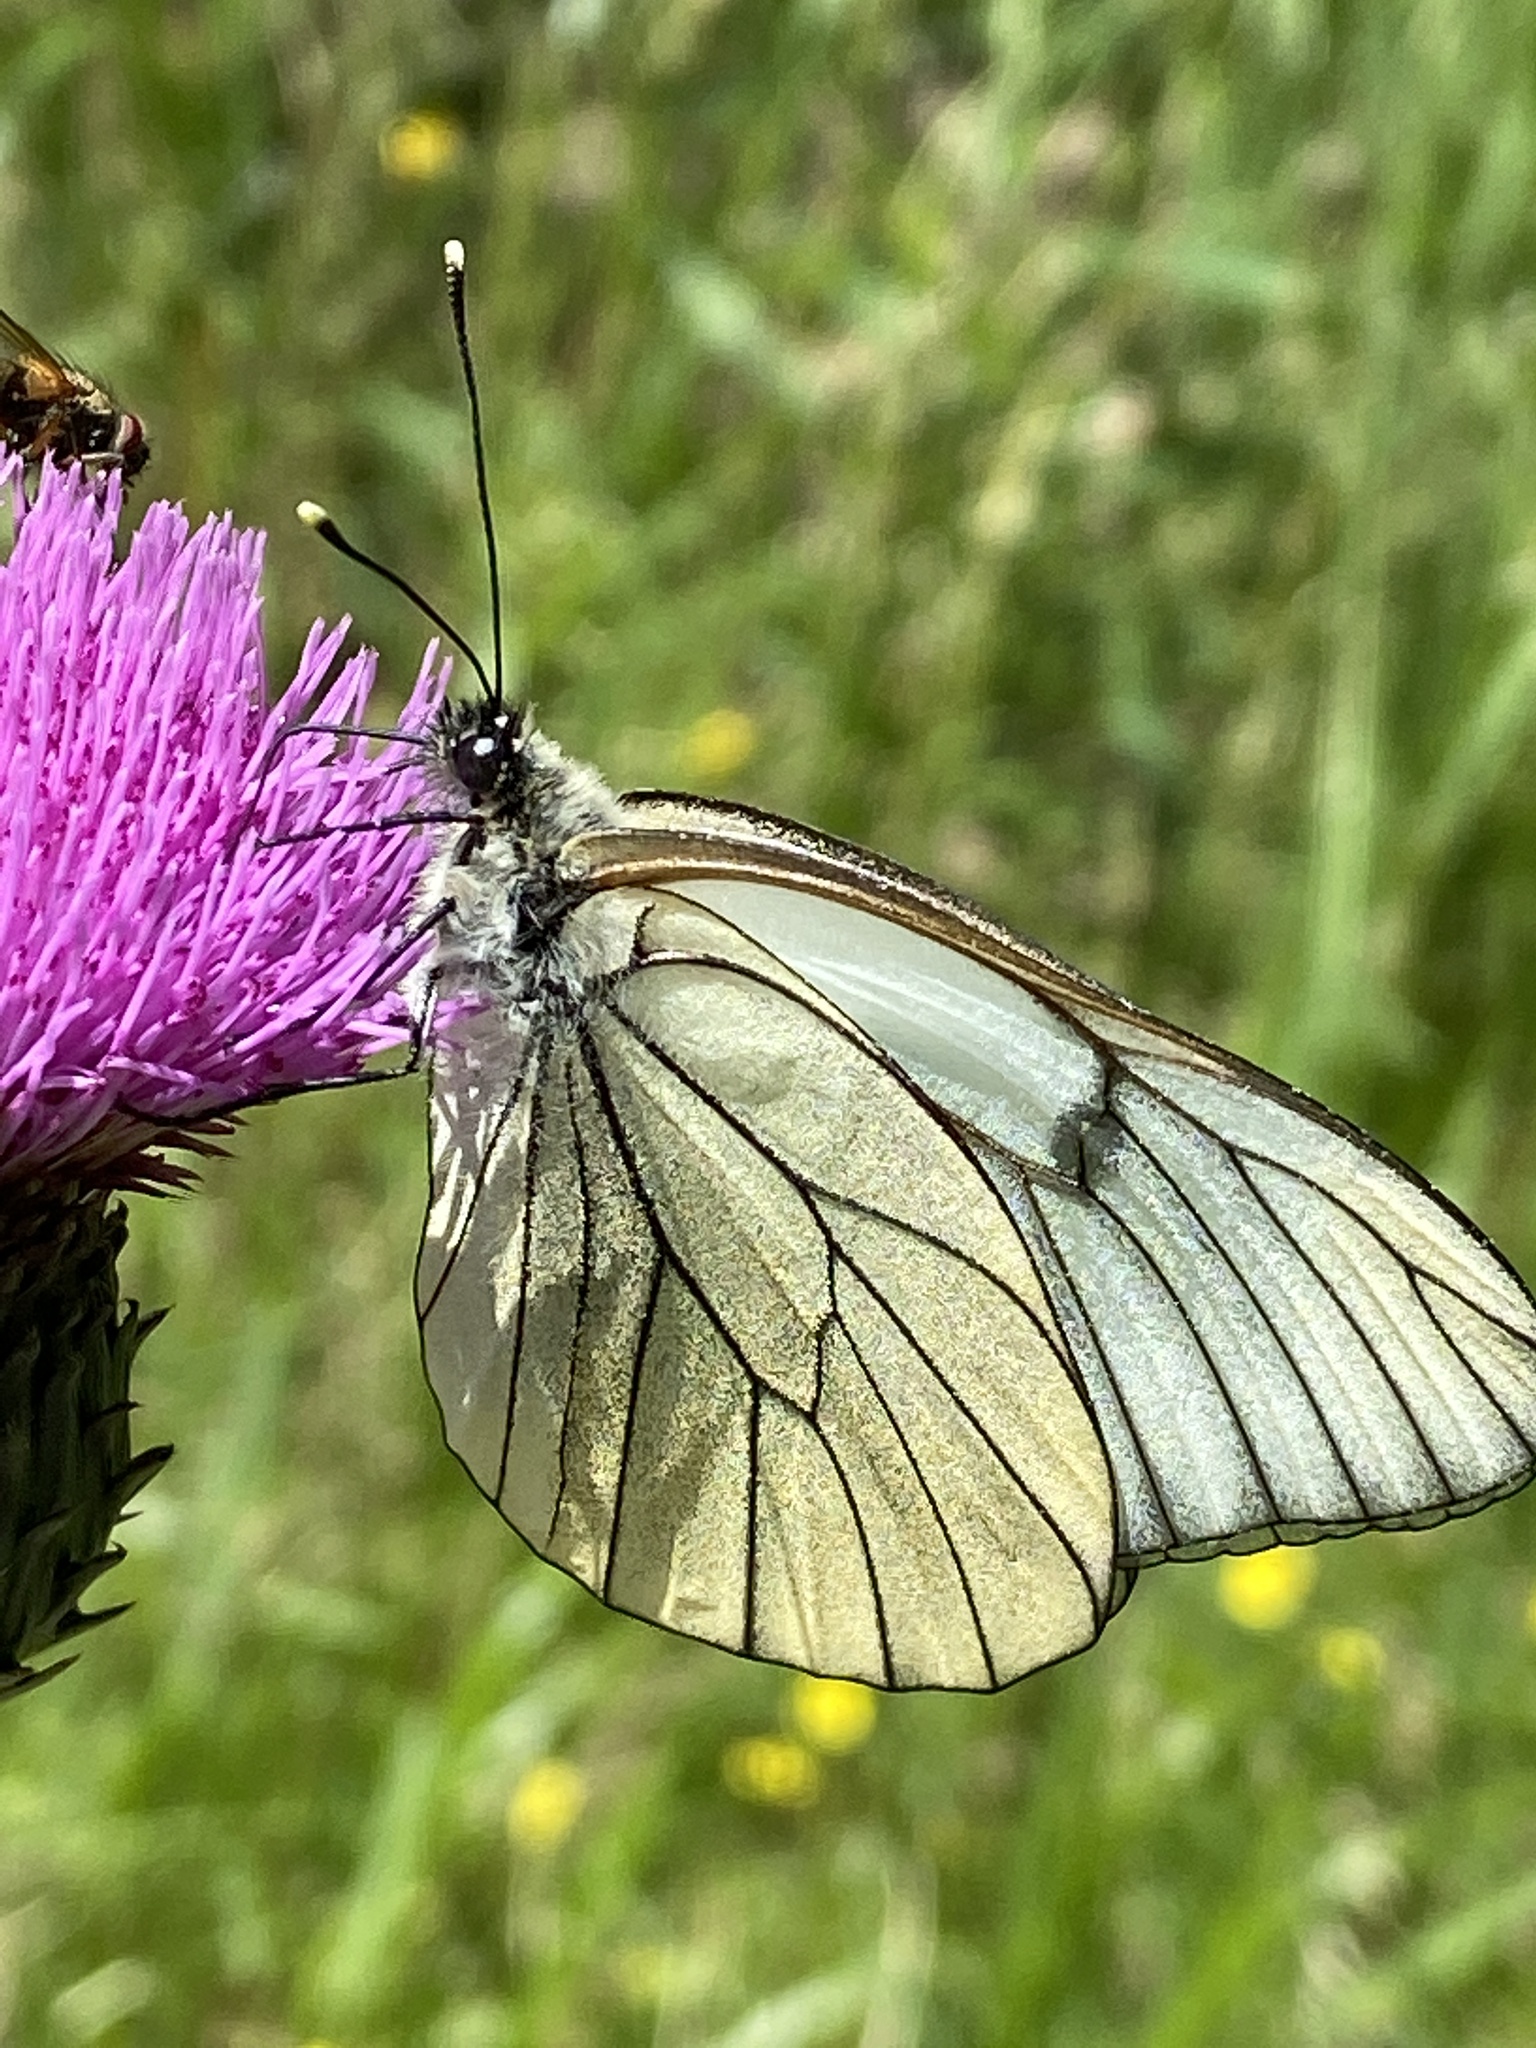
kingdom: Animalia
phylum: Arthropoda
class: Insecta
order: Lepidoptera
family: Pieridae
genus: Aporia
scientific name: Aporia crataegi
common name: Black-veined white
